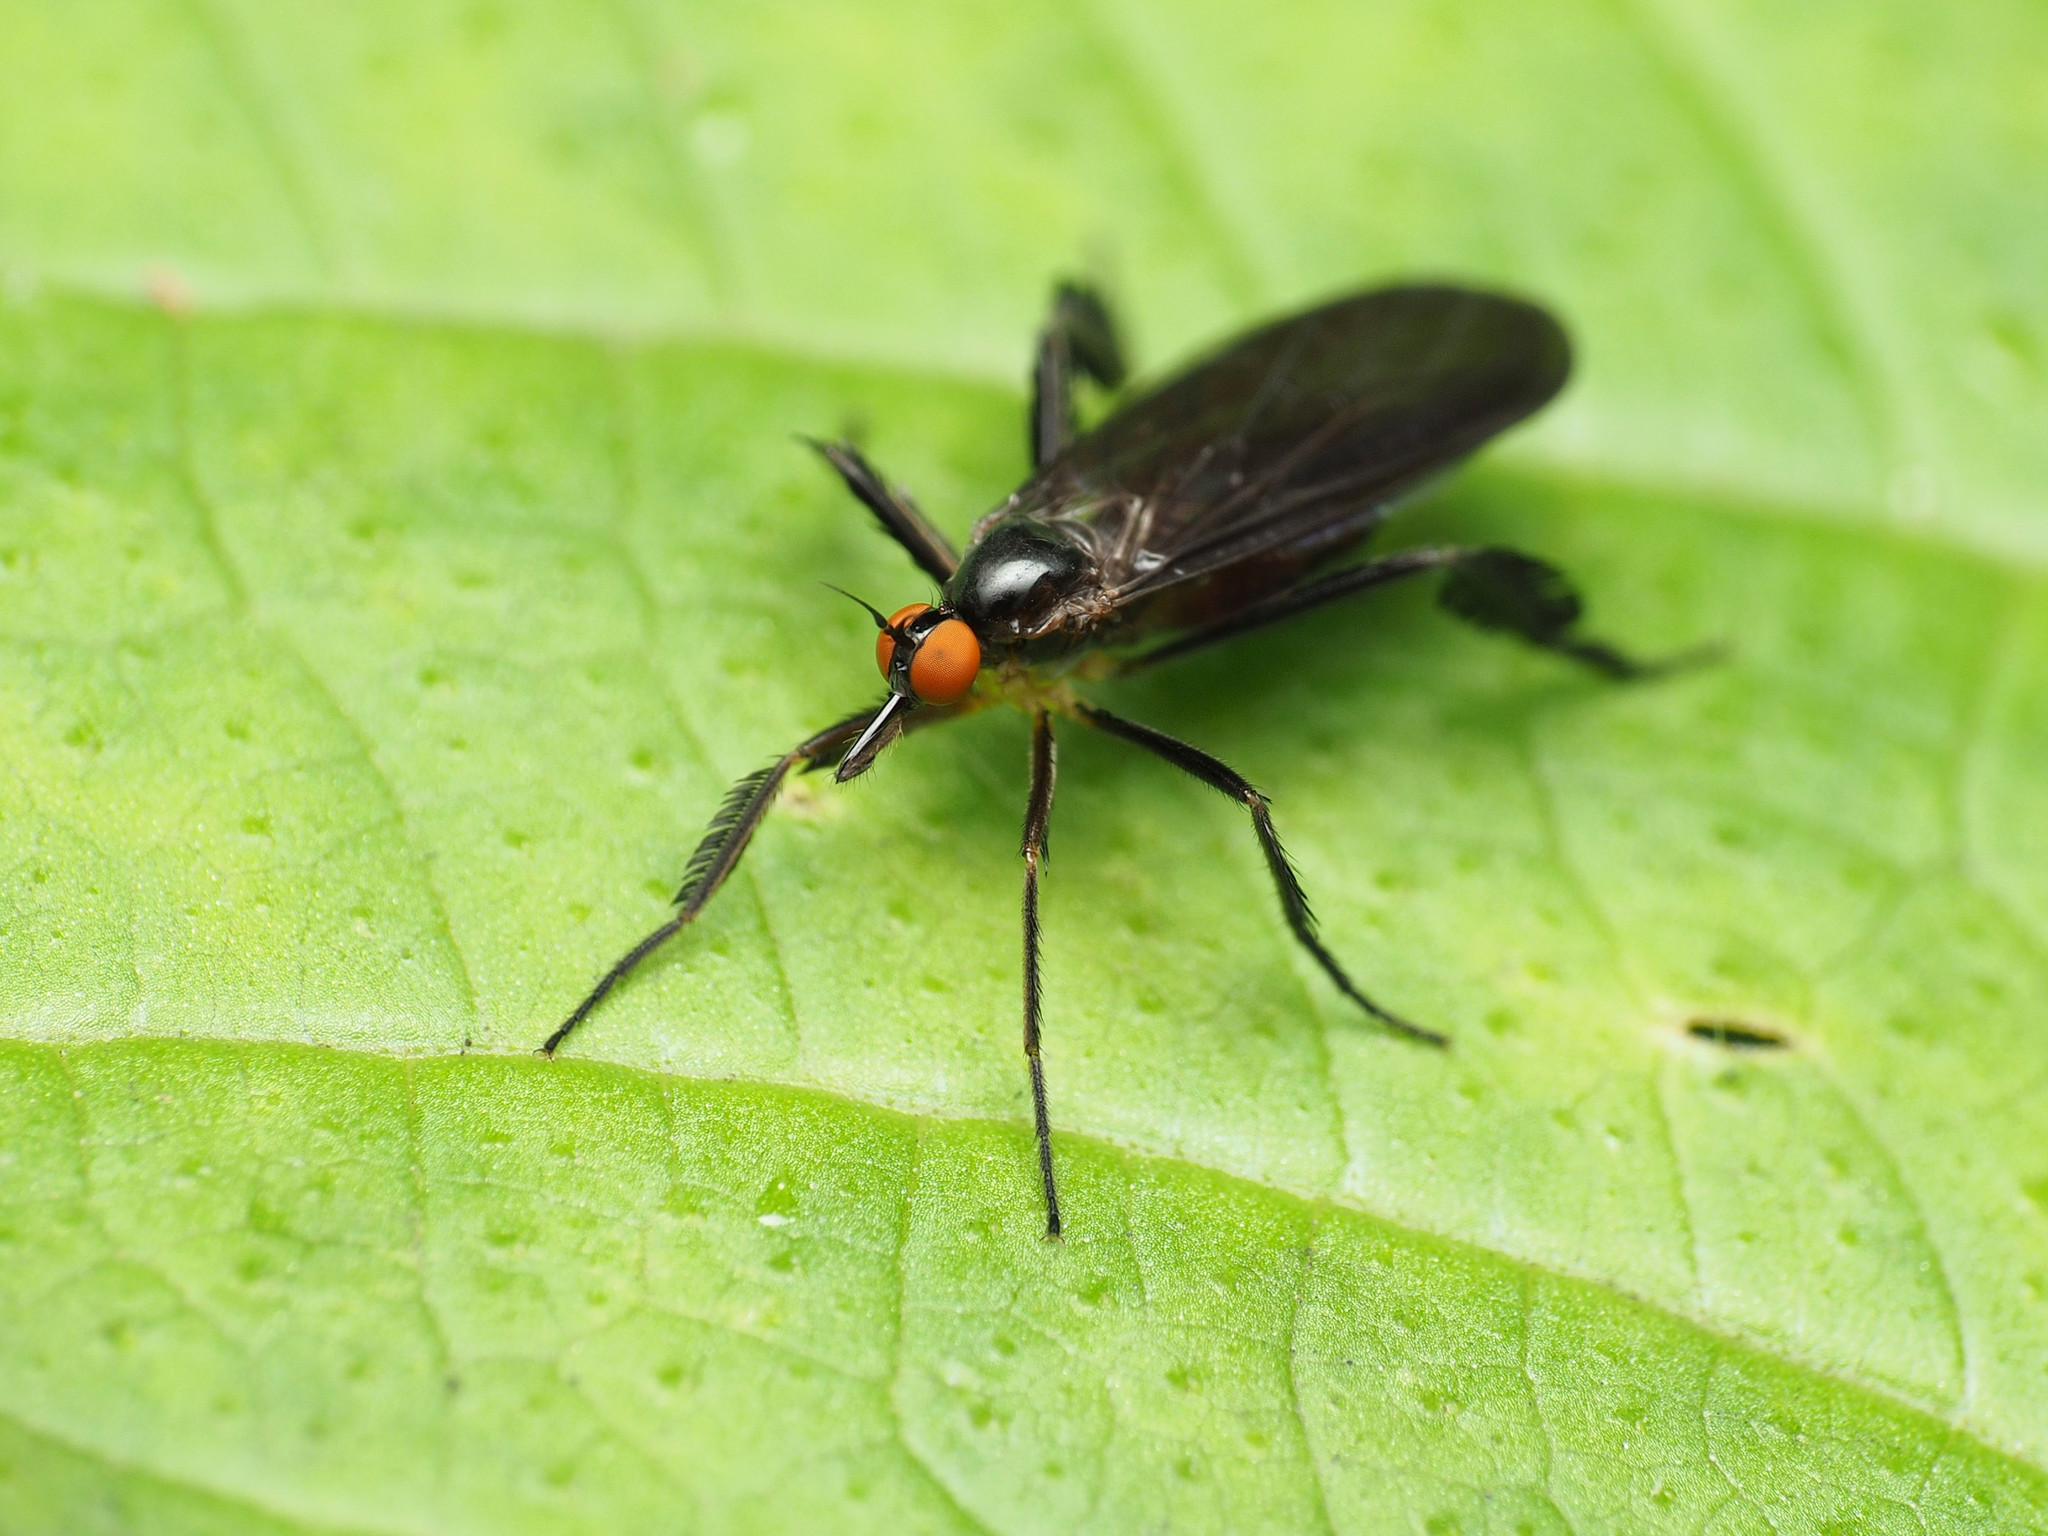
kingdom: Animalia
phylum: Arthropoda
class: Insecta
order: Diptera
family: Empididae
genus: Rhamphomyia
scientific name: Rhamphomyia longicauda
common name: Long-tailed dance fly
